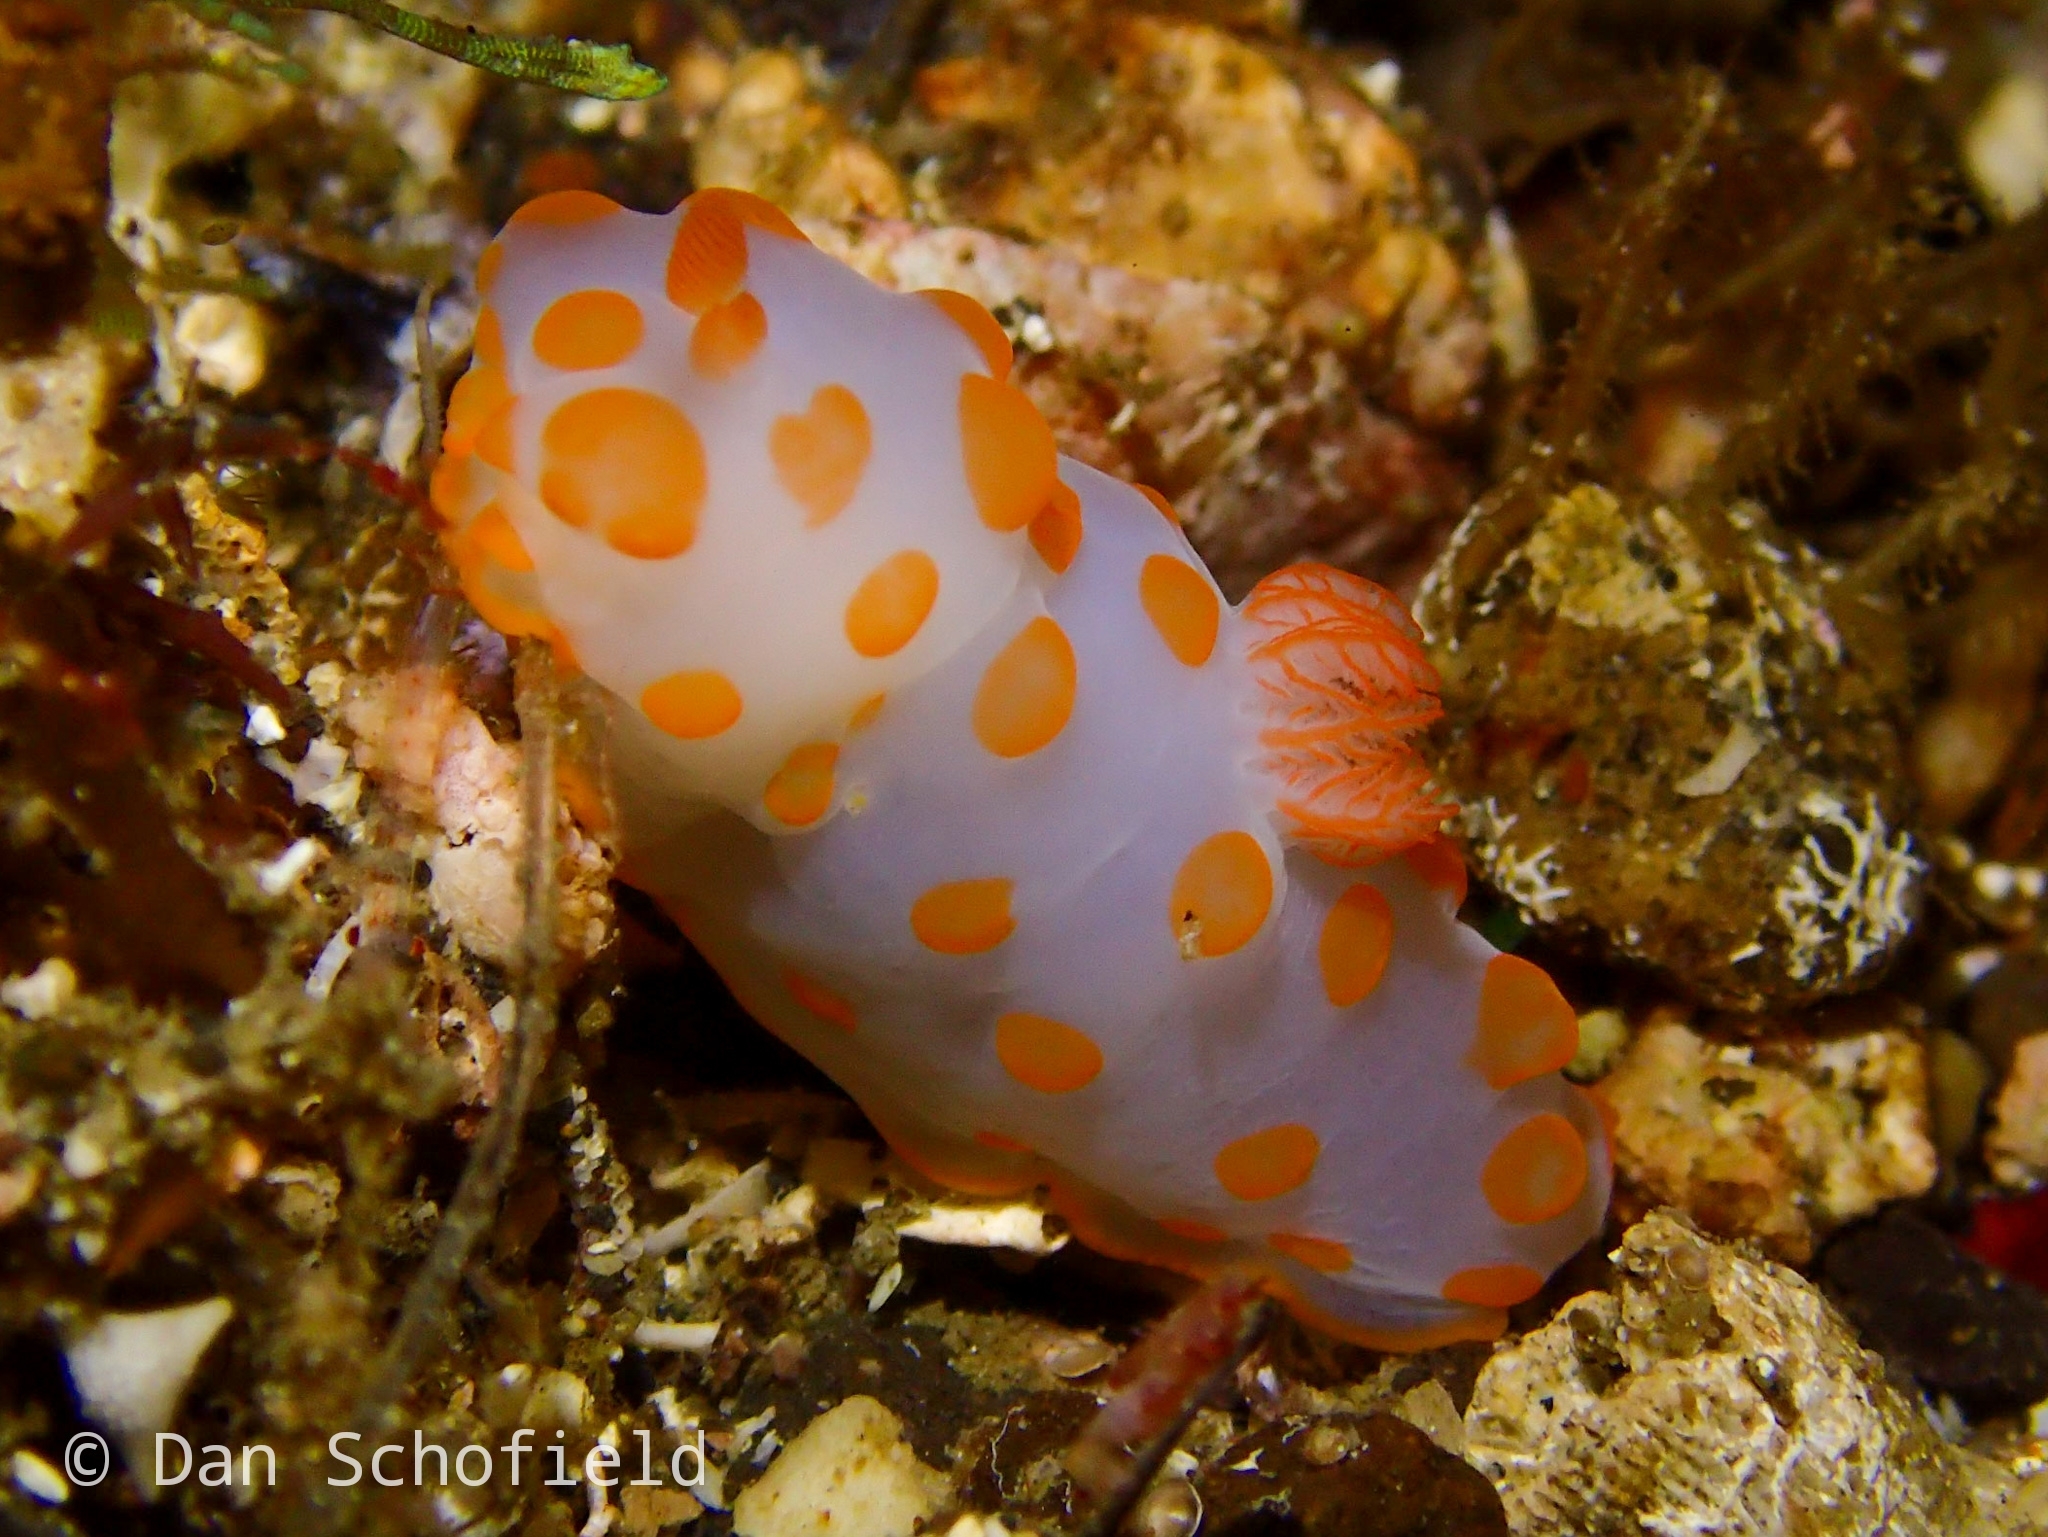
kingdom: Animalia
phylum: Mollusca
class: Gastropoda
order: Nudibranchia
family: Polyceridae
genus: Gymnodoris
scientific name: Gymnodoris impudica
